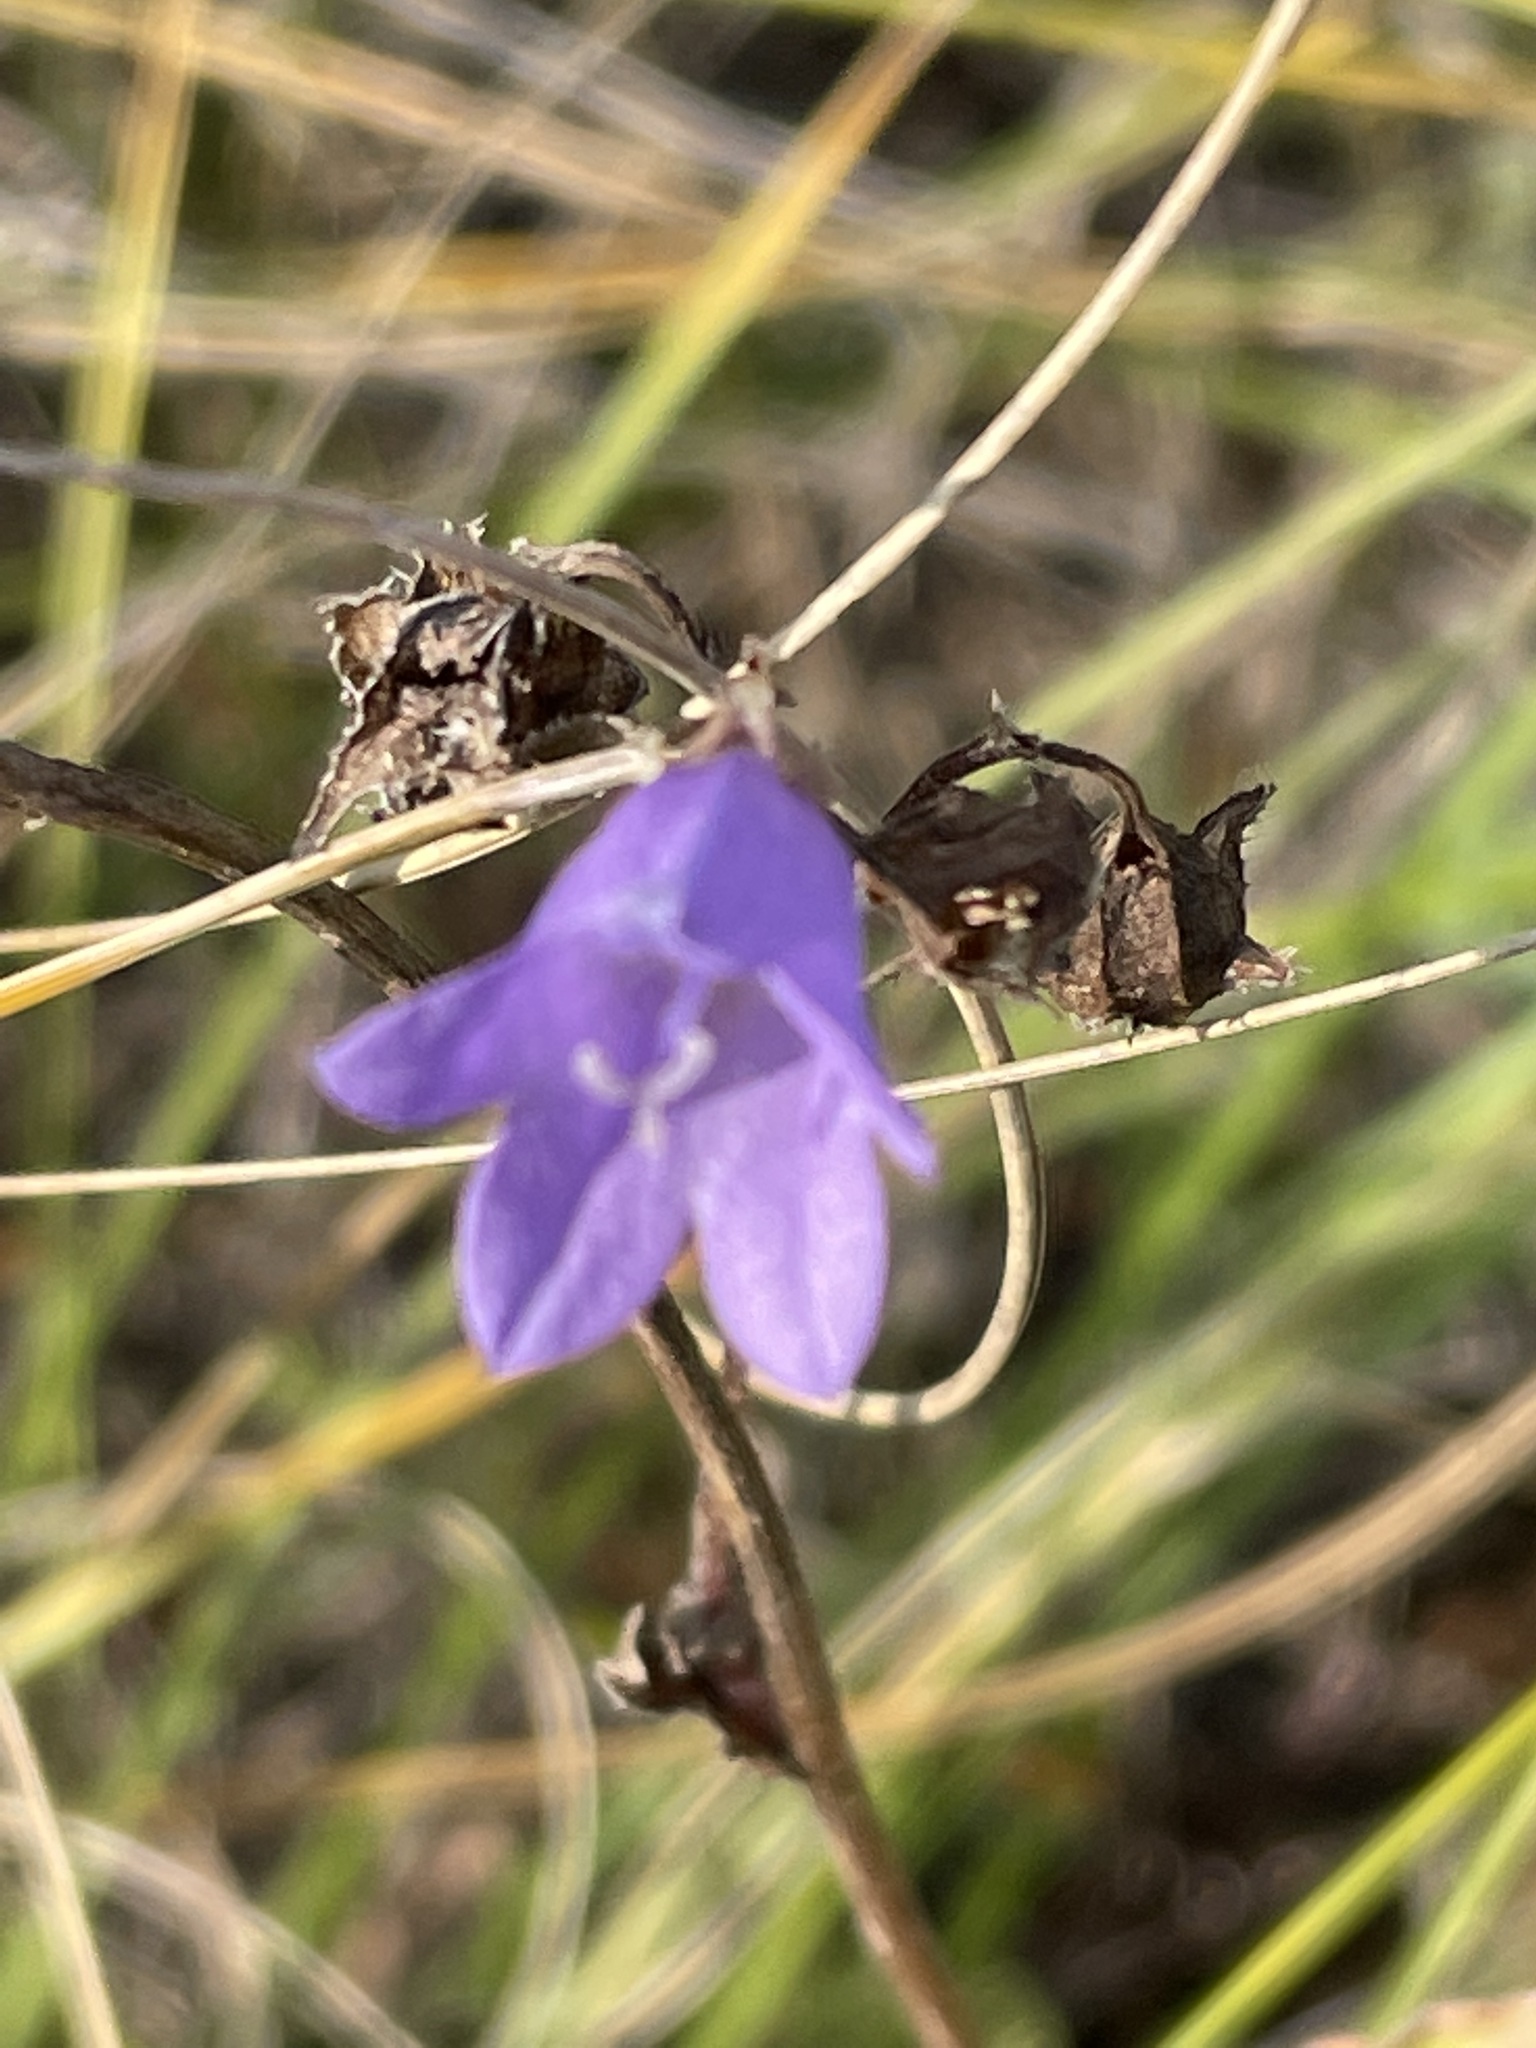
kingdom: Plantae
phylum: Tracheophyta
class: Magnoliopsida
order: Asterales
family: Campanulaceae
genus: Campanula
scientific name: Campanula sibirica
